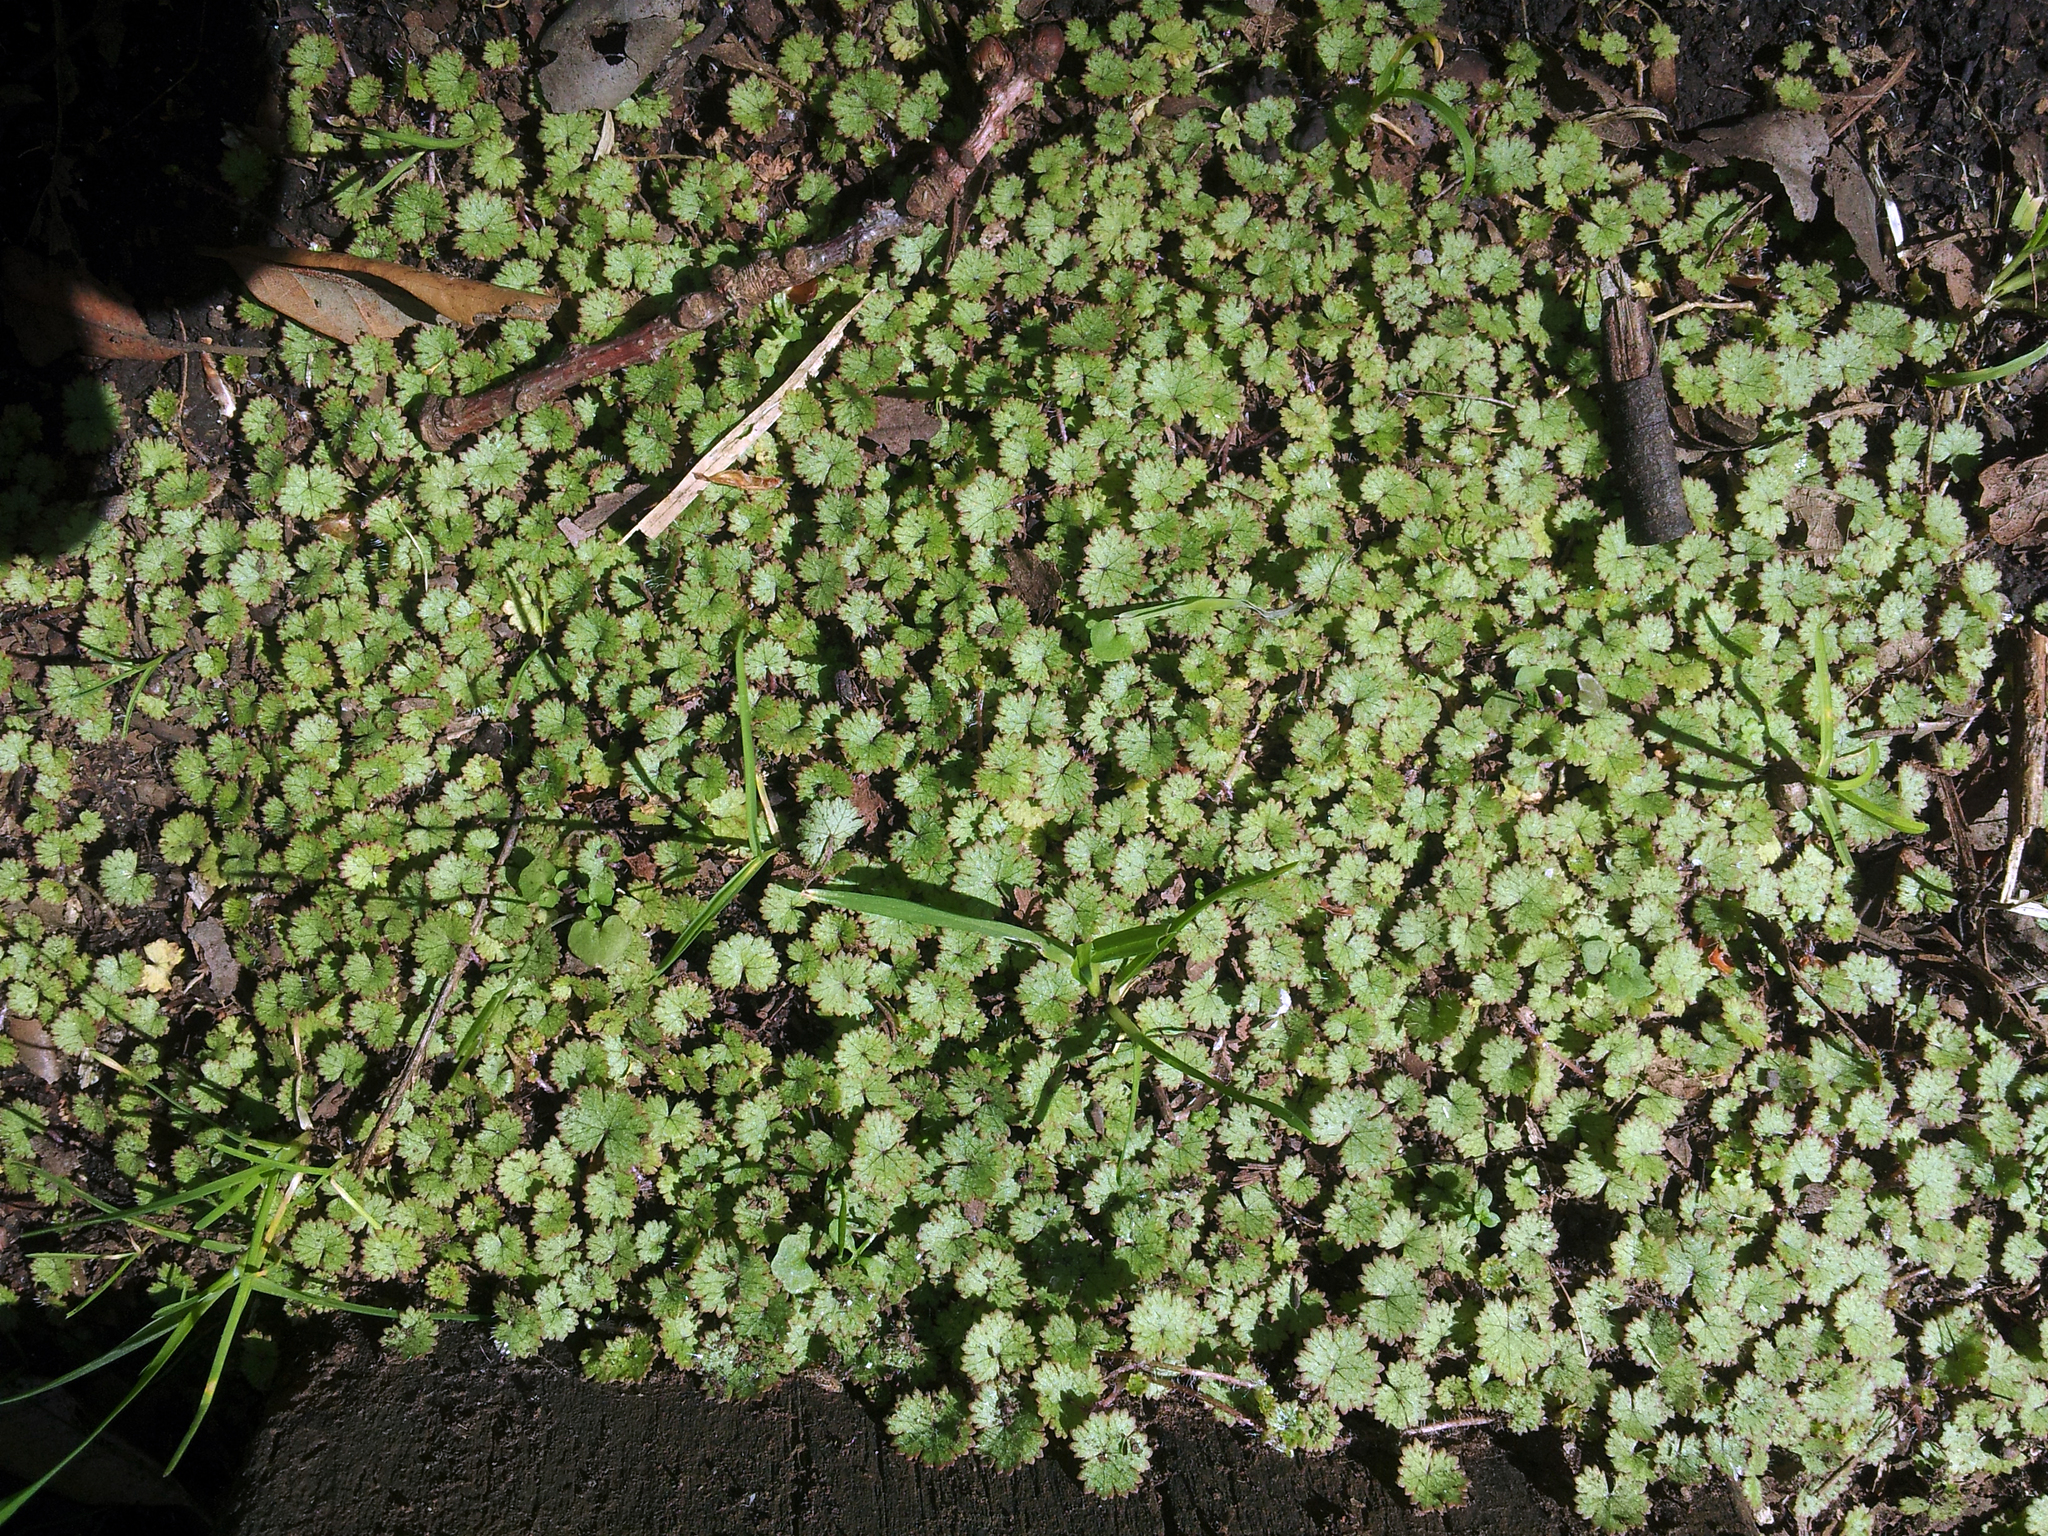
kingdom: Plantae
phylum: Tracheophyta
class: Magnoliopsida
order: Apiales
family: Araliaceae
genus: Hydrocotyle
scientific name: Hydrocotyle moschata
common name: Hairy pennywort
